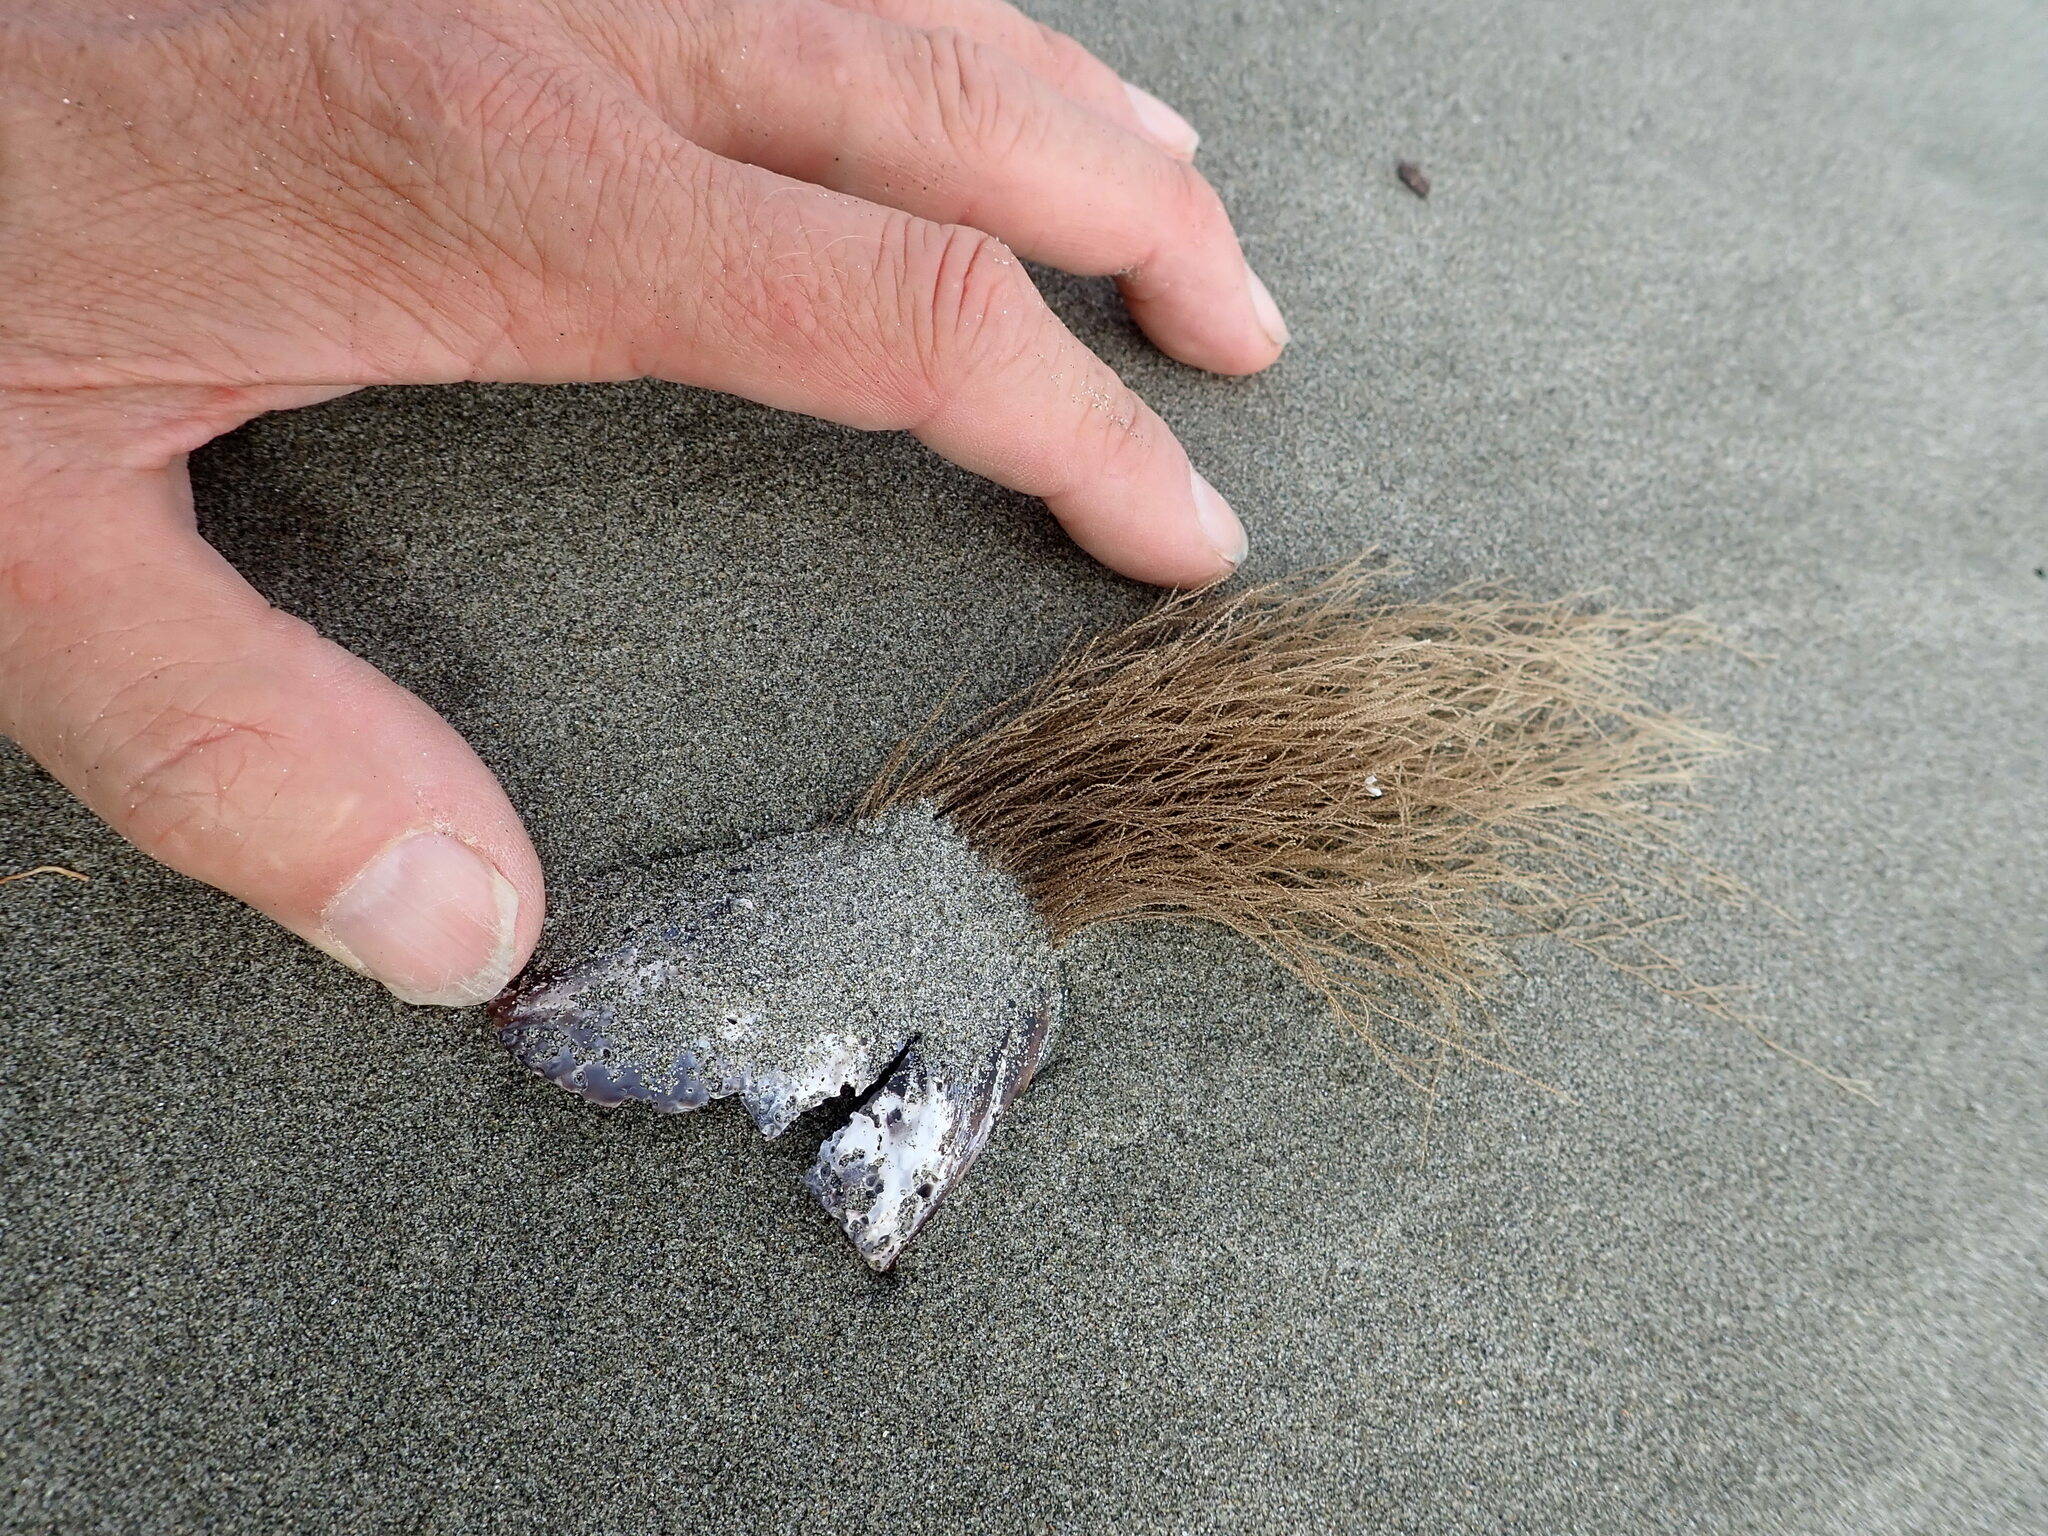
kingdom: Animalia
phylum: Cnidaria
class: Hydrozoa
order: Leptothecata
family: Sertulariidae
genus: Amphisbetia
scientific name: Amphisbetia bispinosa
